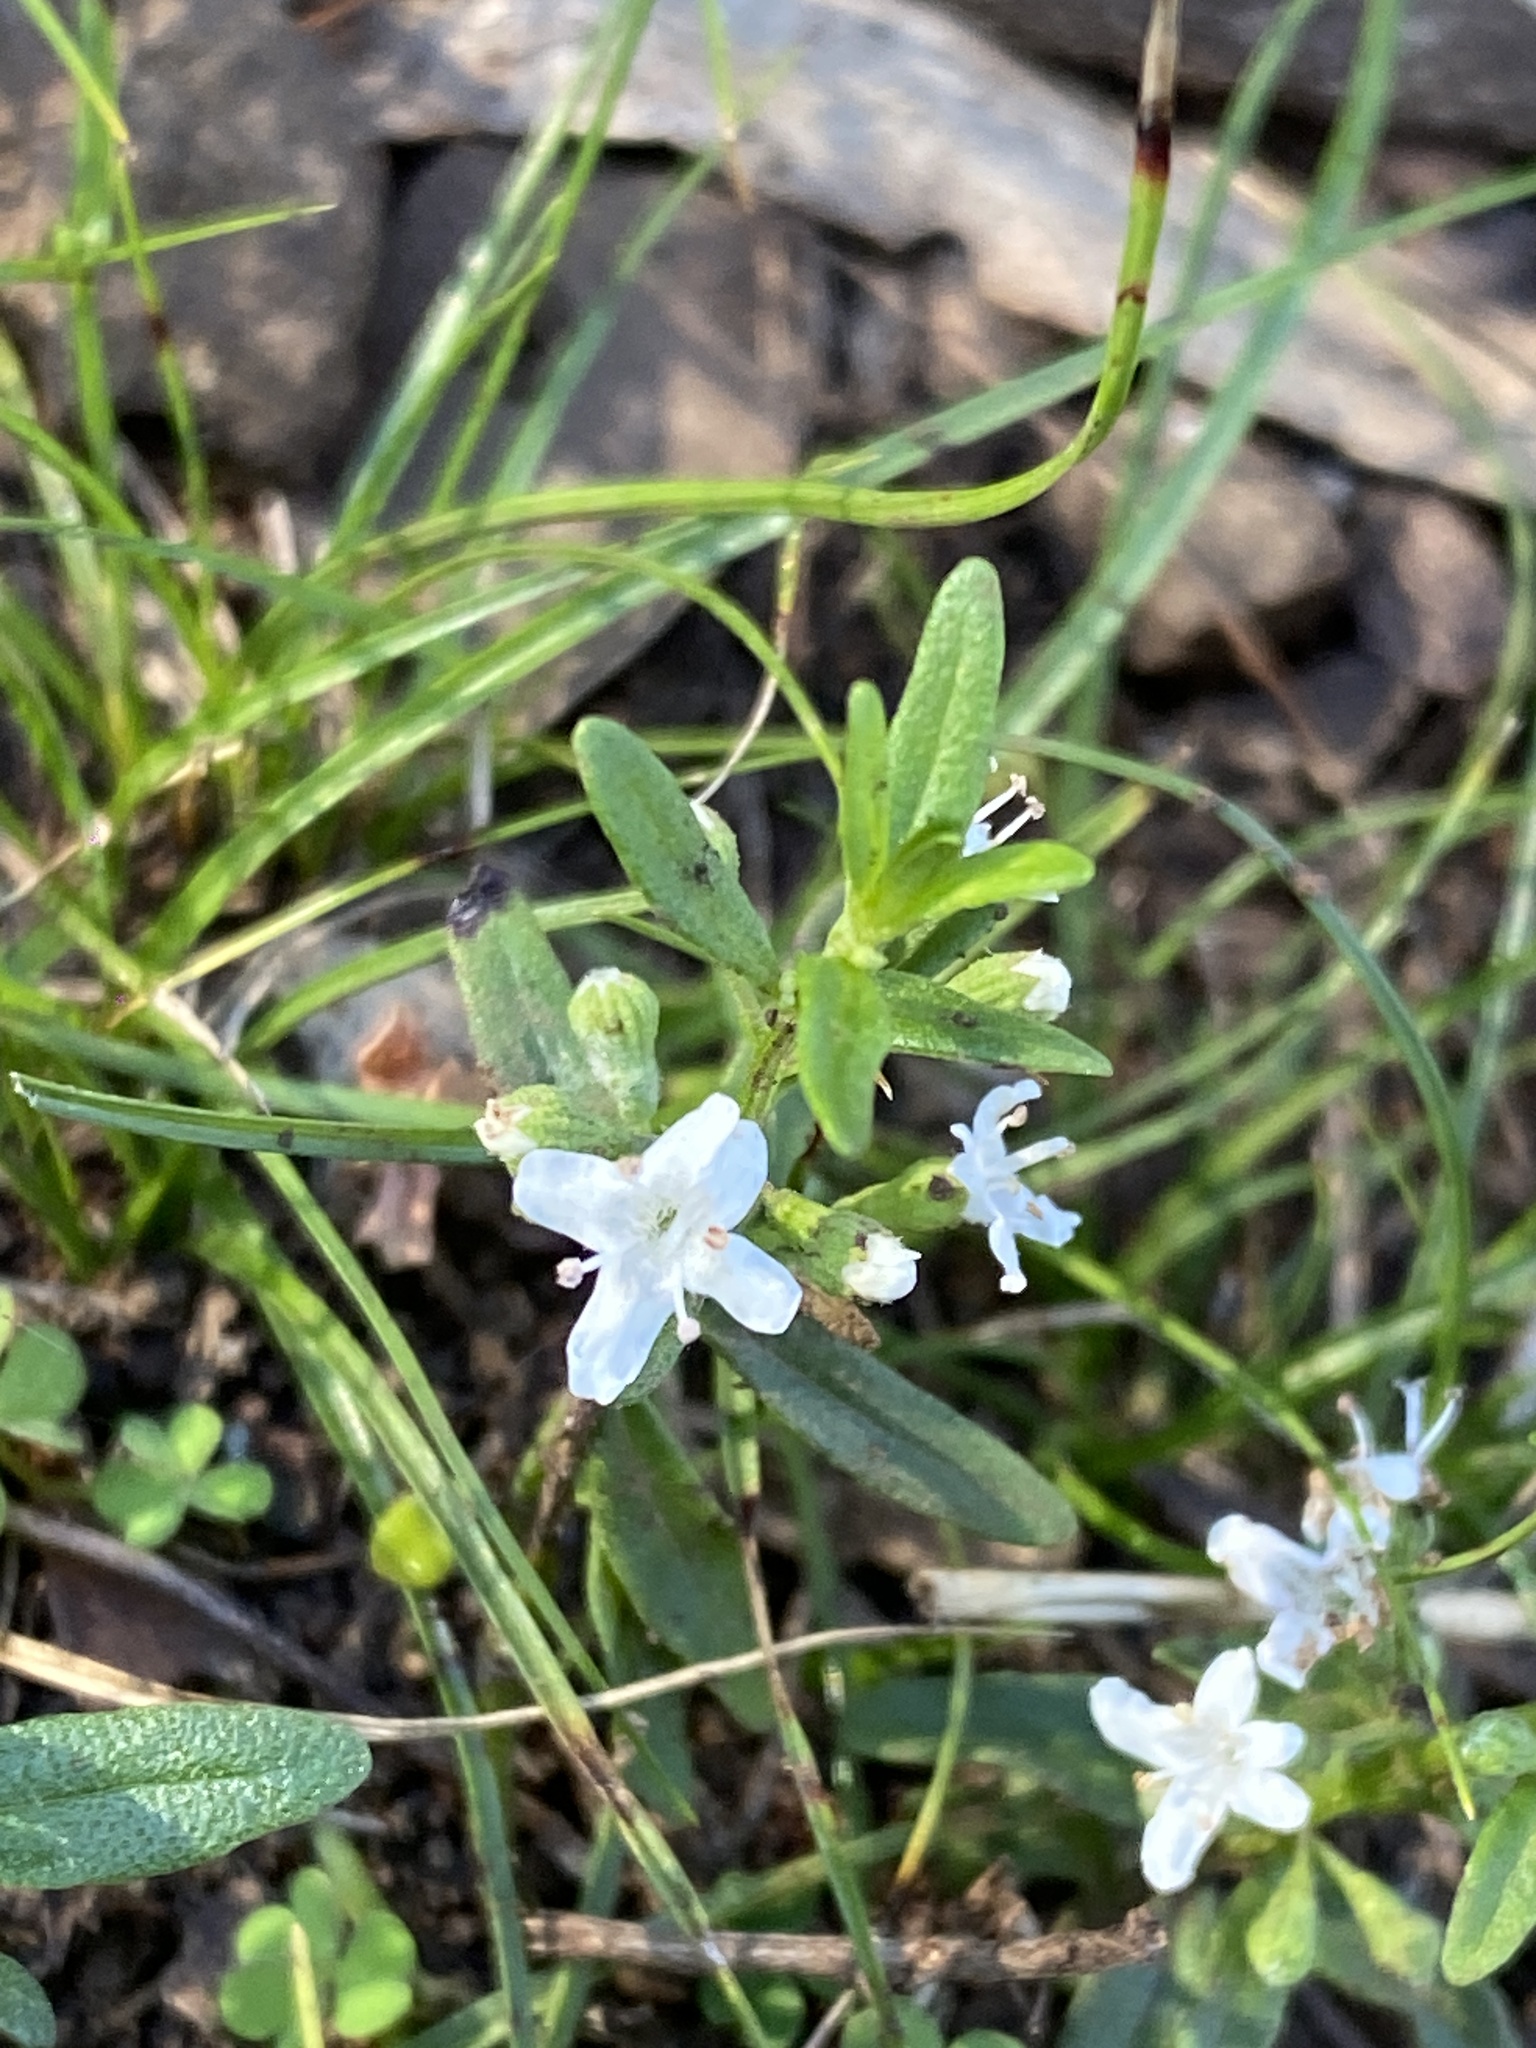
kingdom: Plantae
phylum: Tracheophyta
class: Magnoliopsida
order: Lamiales
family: Lamiaceae
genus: Mentha
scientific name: Mentha satureioides
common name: Brisbane pennyroyal
